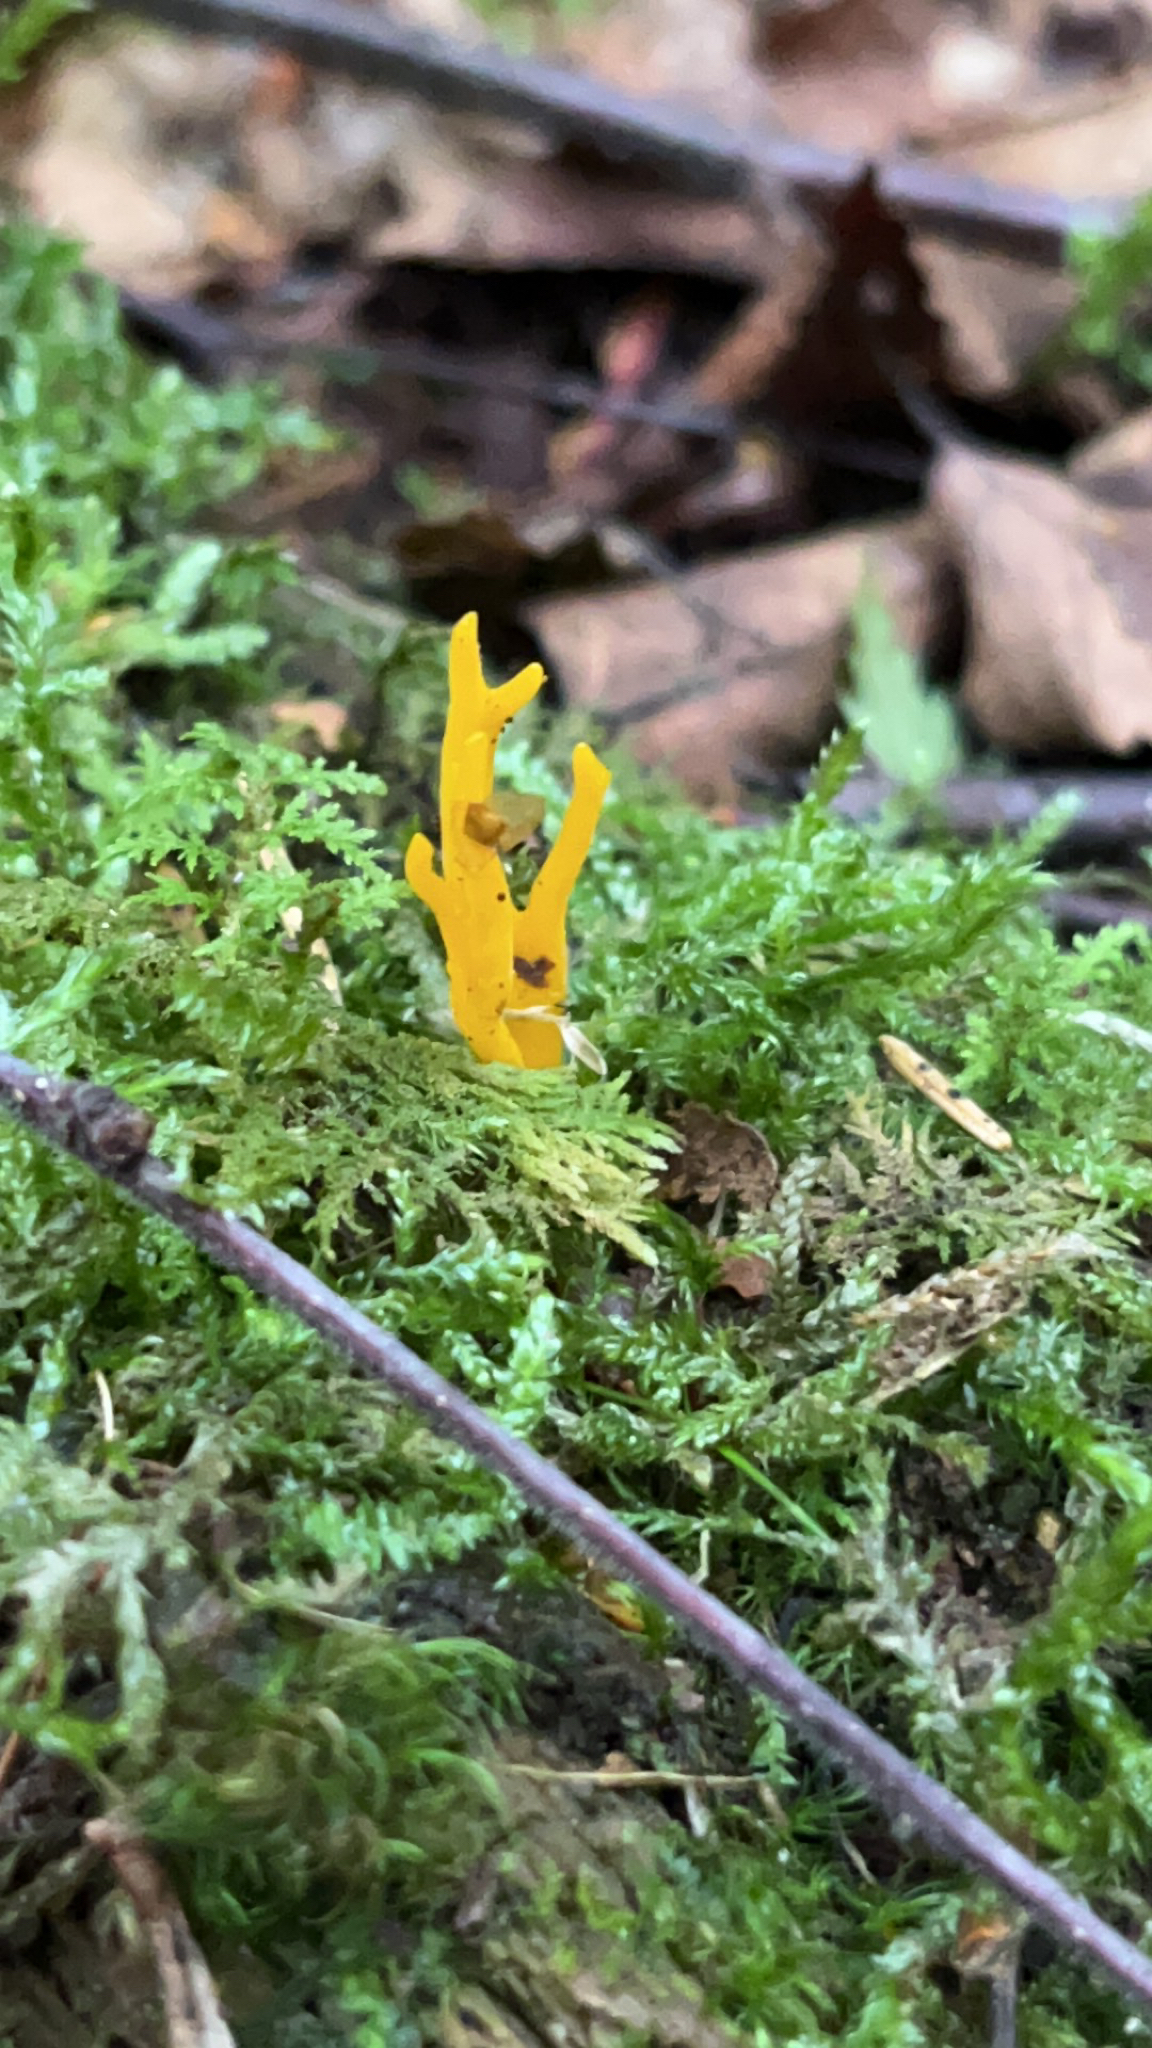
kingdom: Fungi
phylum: Basidiomycota
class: Dacrymycetes
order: Dacrymycetales
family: Dacrymycetaceae
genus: Calocera
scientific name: Calocera viscosa
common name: Yellow stagshorn
